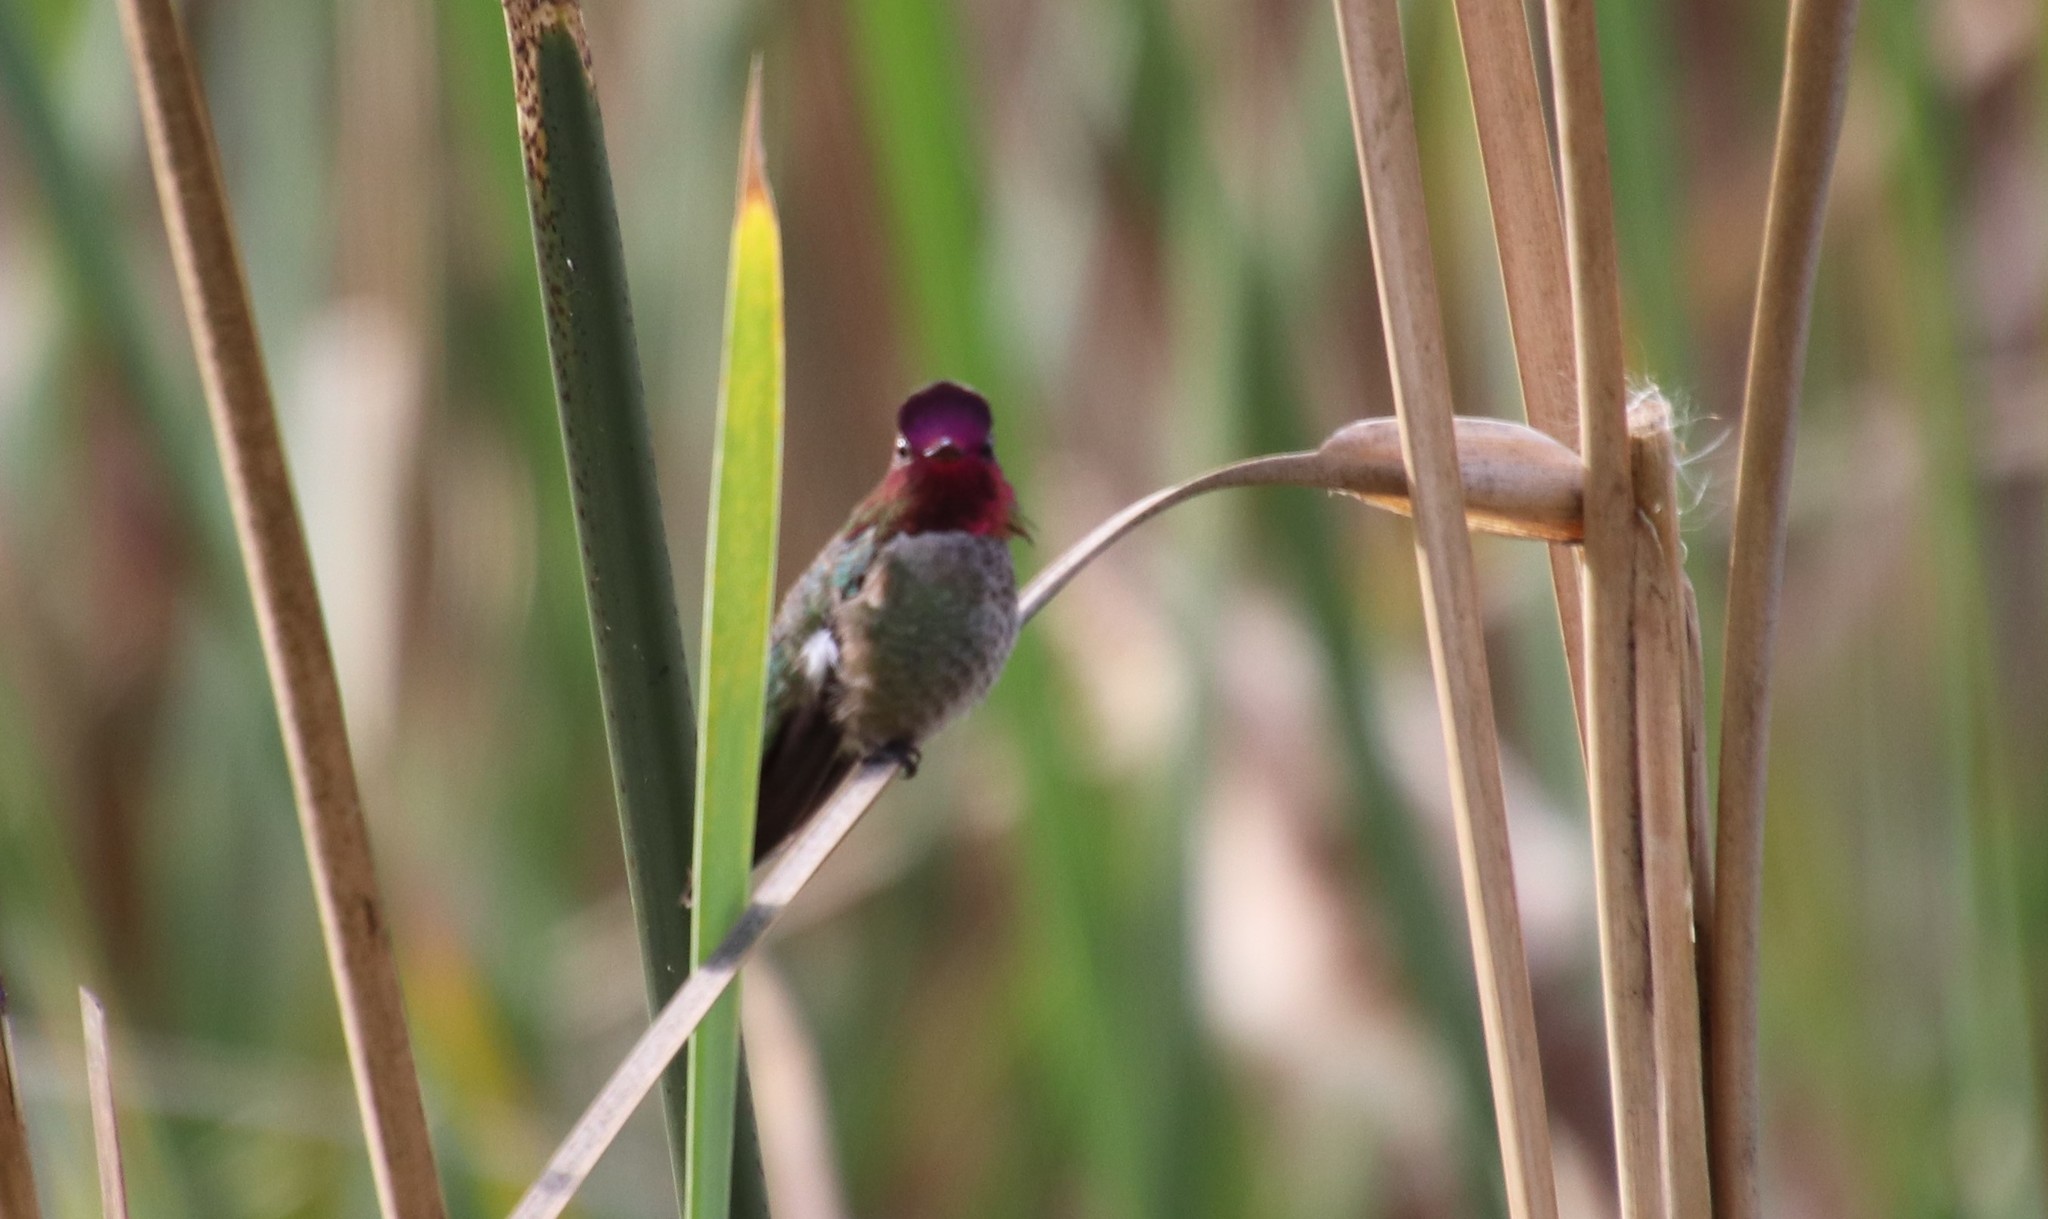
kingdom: Animalia
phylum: Chordata
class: Aves
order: Apodiformes
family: Trochilidae
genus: Calypte
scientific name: Calypte anna
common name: Anna's hummingbird
